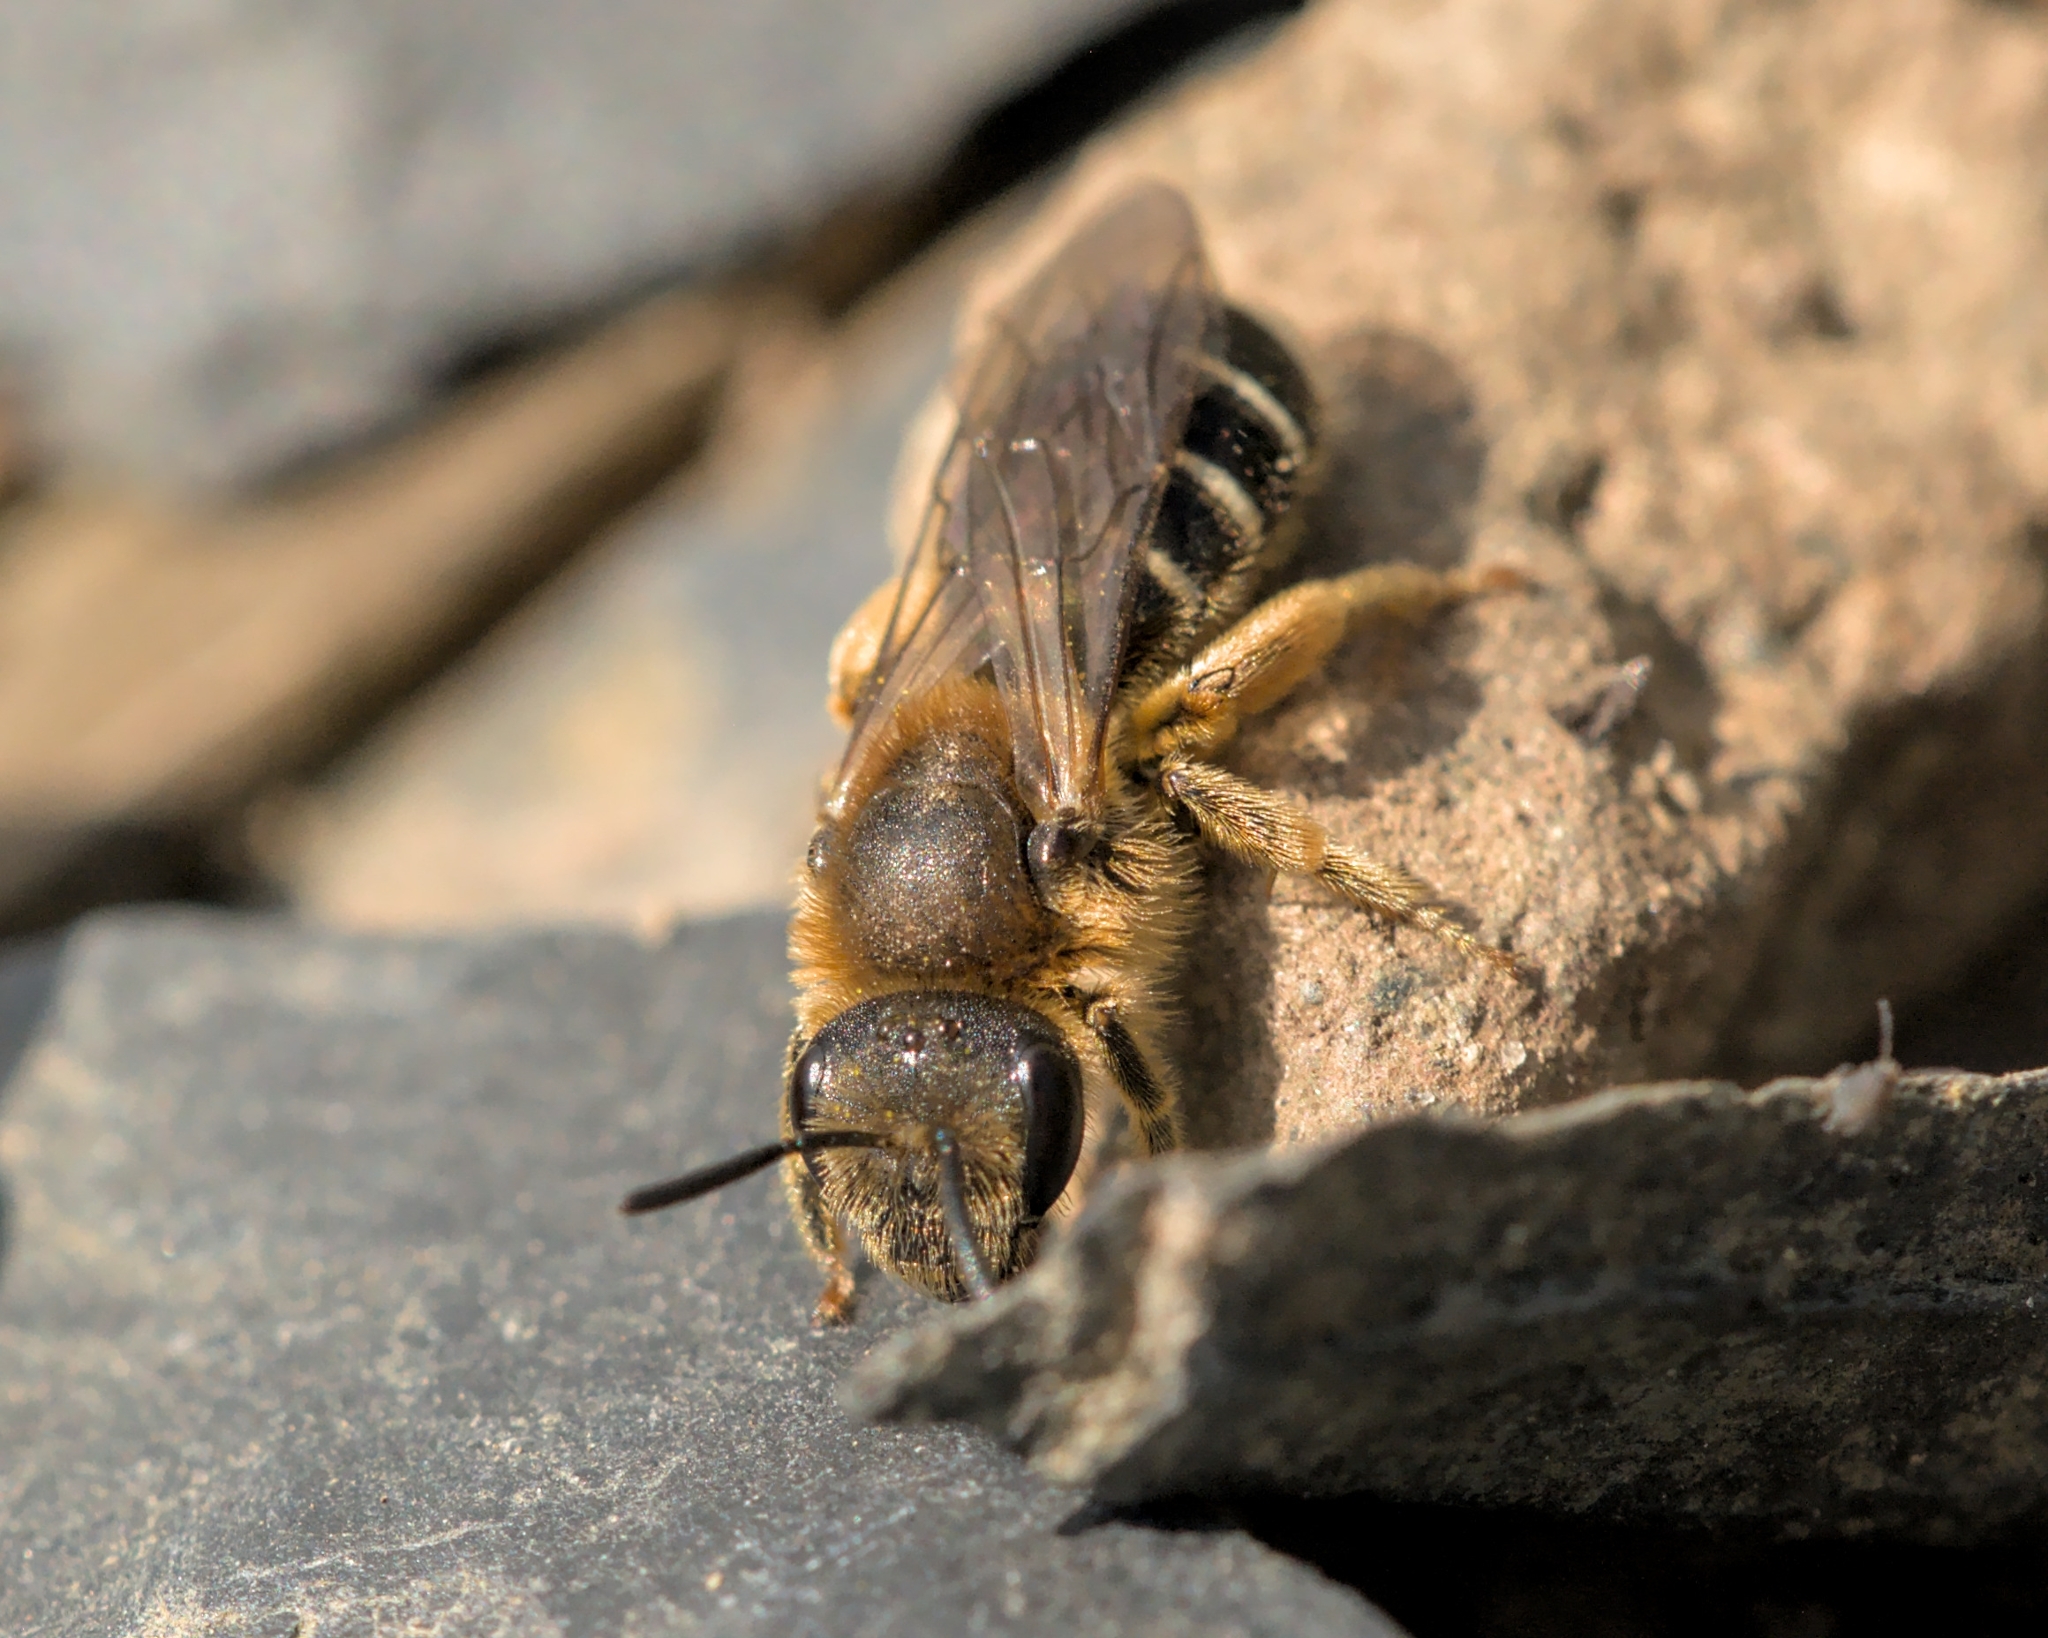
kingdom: Animalia
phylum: Arthropoda
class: Insecta
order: Hymenoptera
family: Halictidae
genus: Halictus
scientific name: Halictus rubicundus
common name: Orange-legged furrow bee
